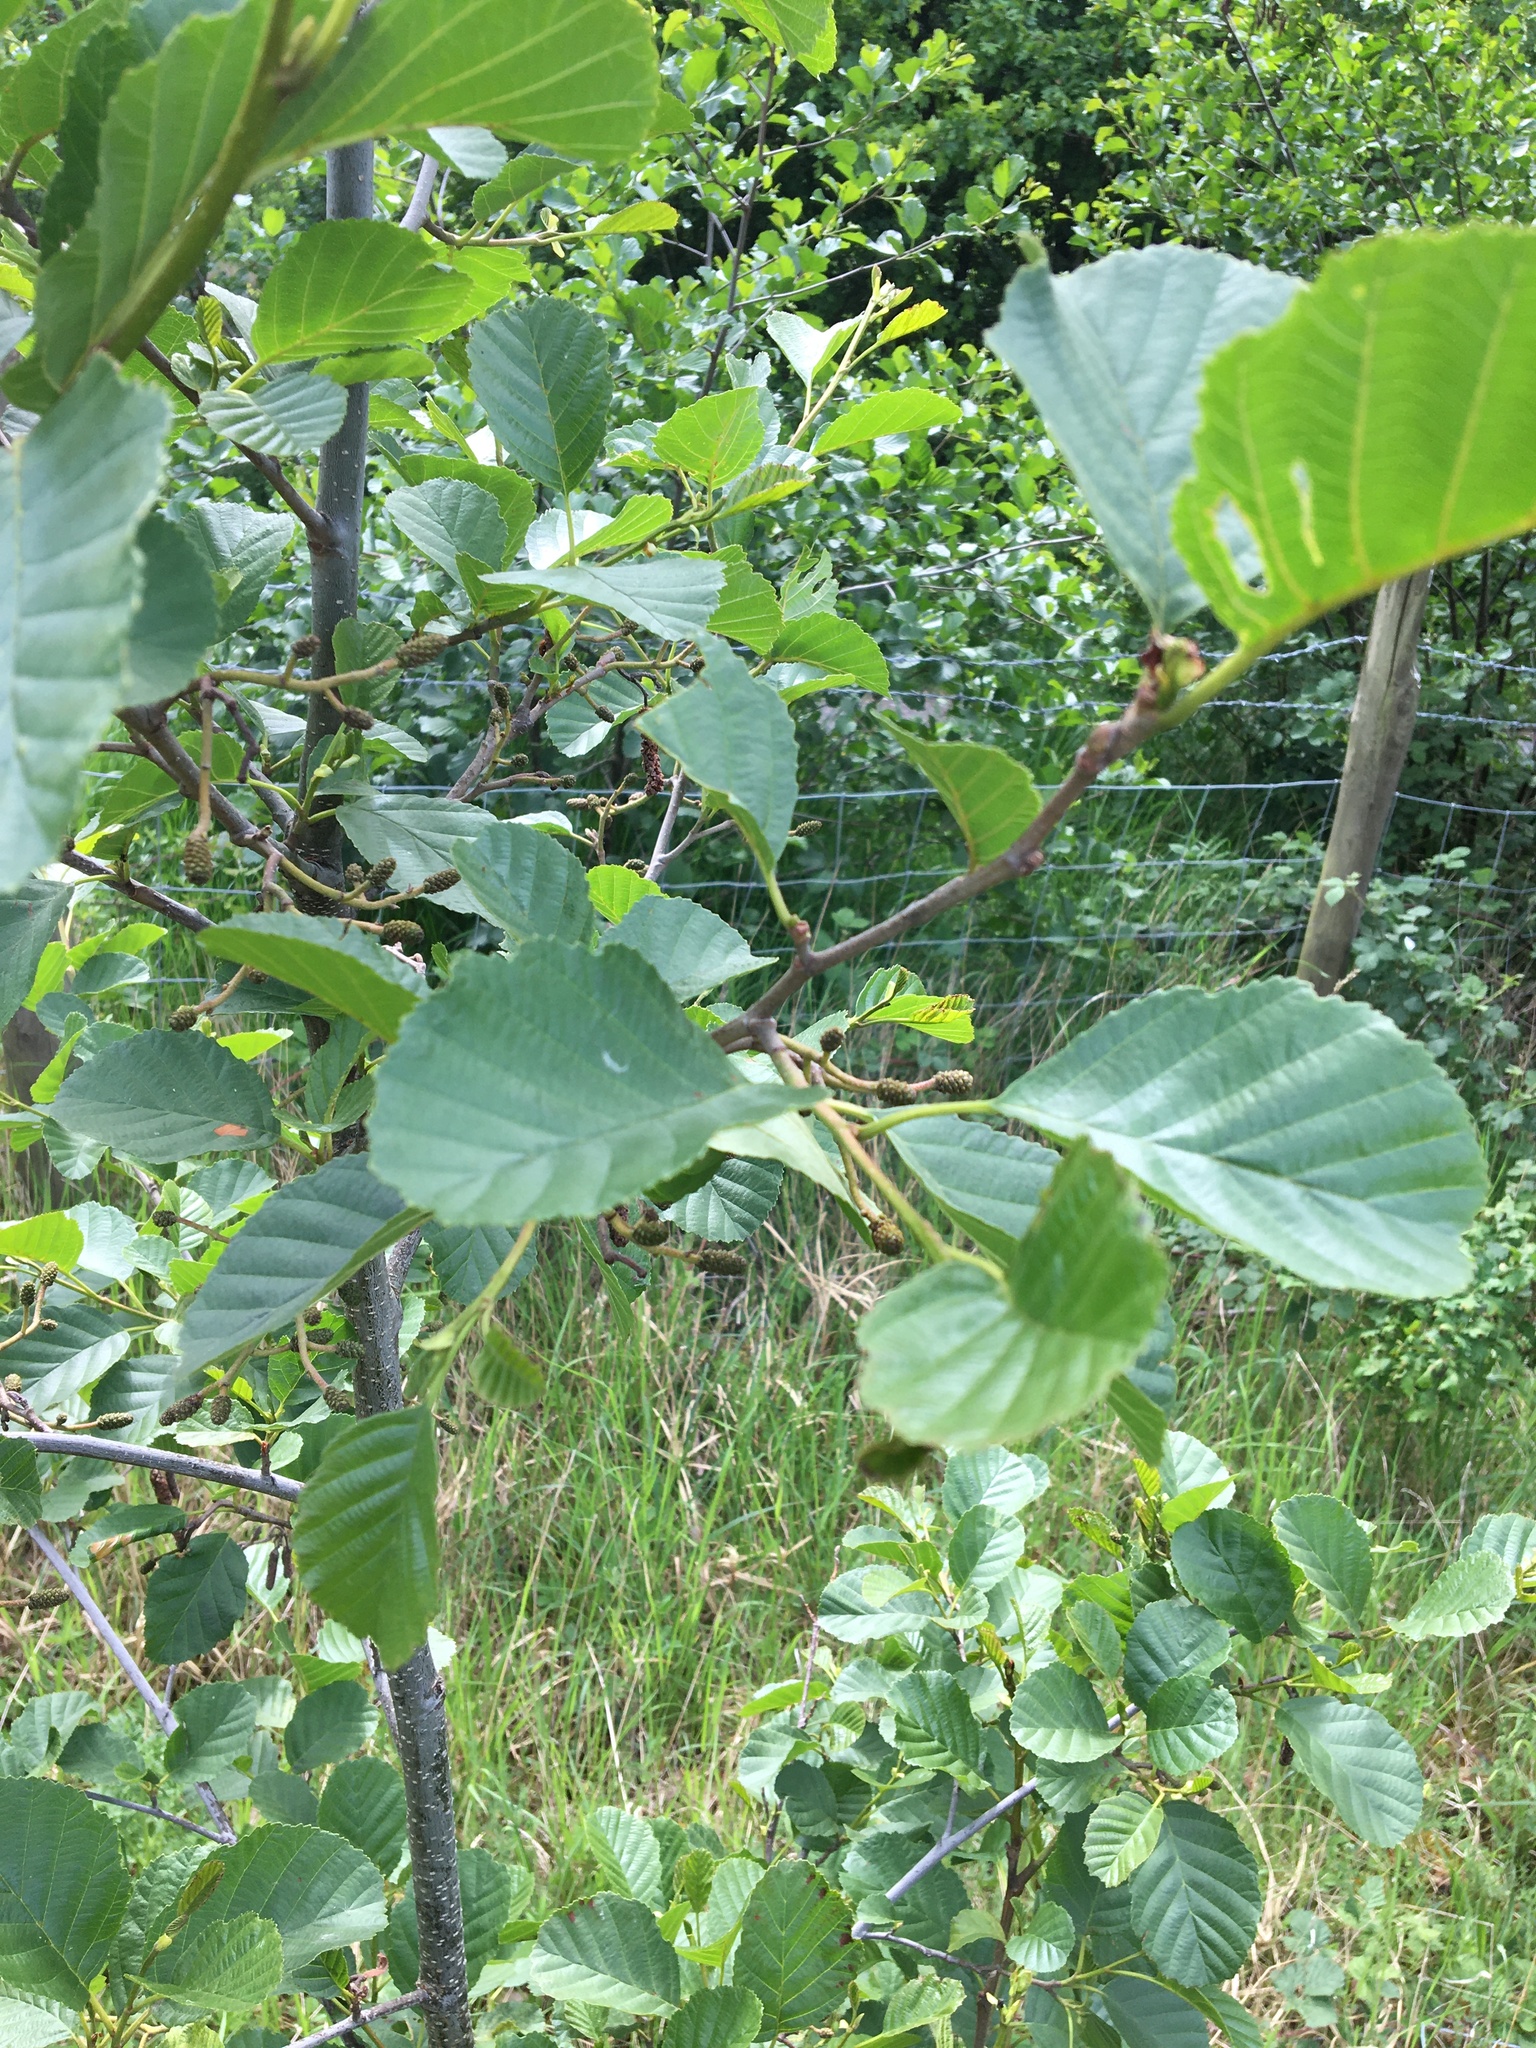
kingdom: Plantae
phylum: Tracheophyta
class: Magnoliopsida
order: Fagales
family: Betulaceae
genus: Alnus
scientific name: Alnus glutinosa
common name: Black alder
